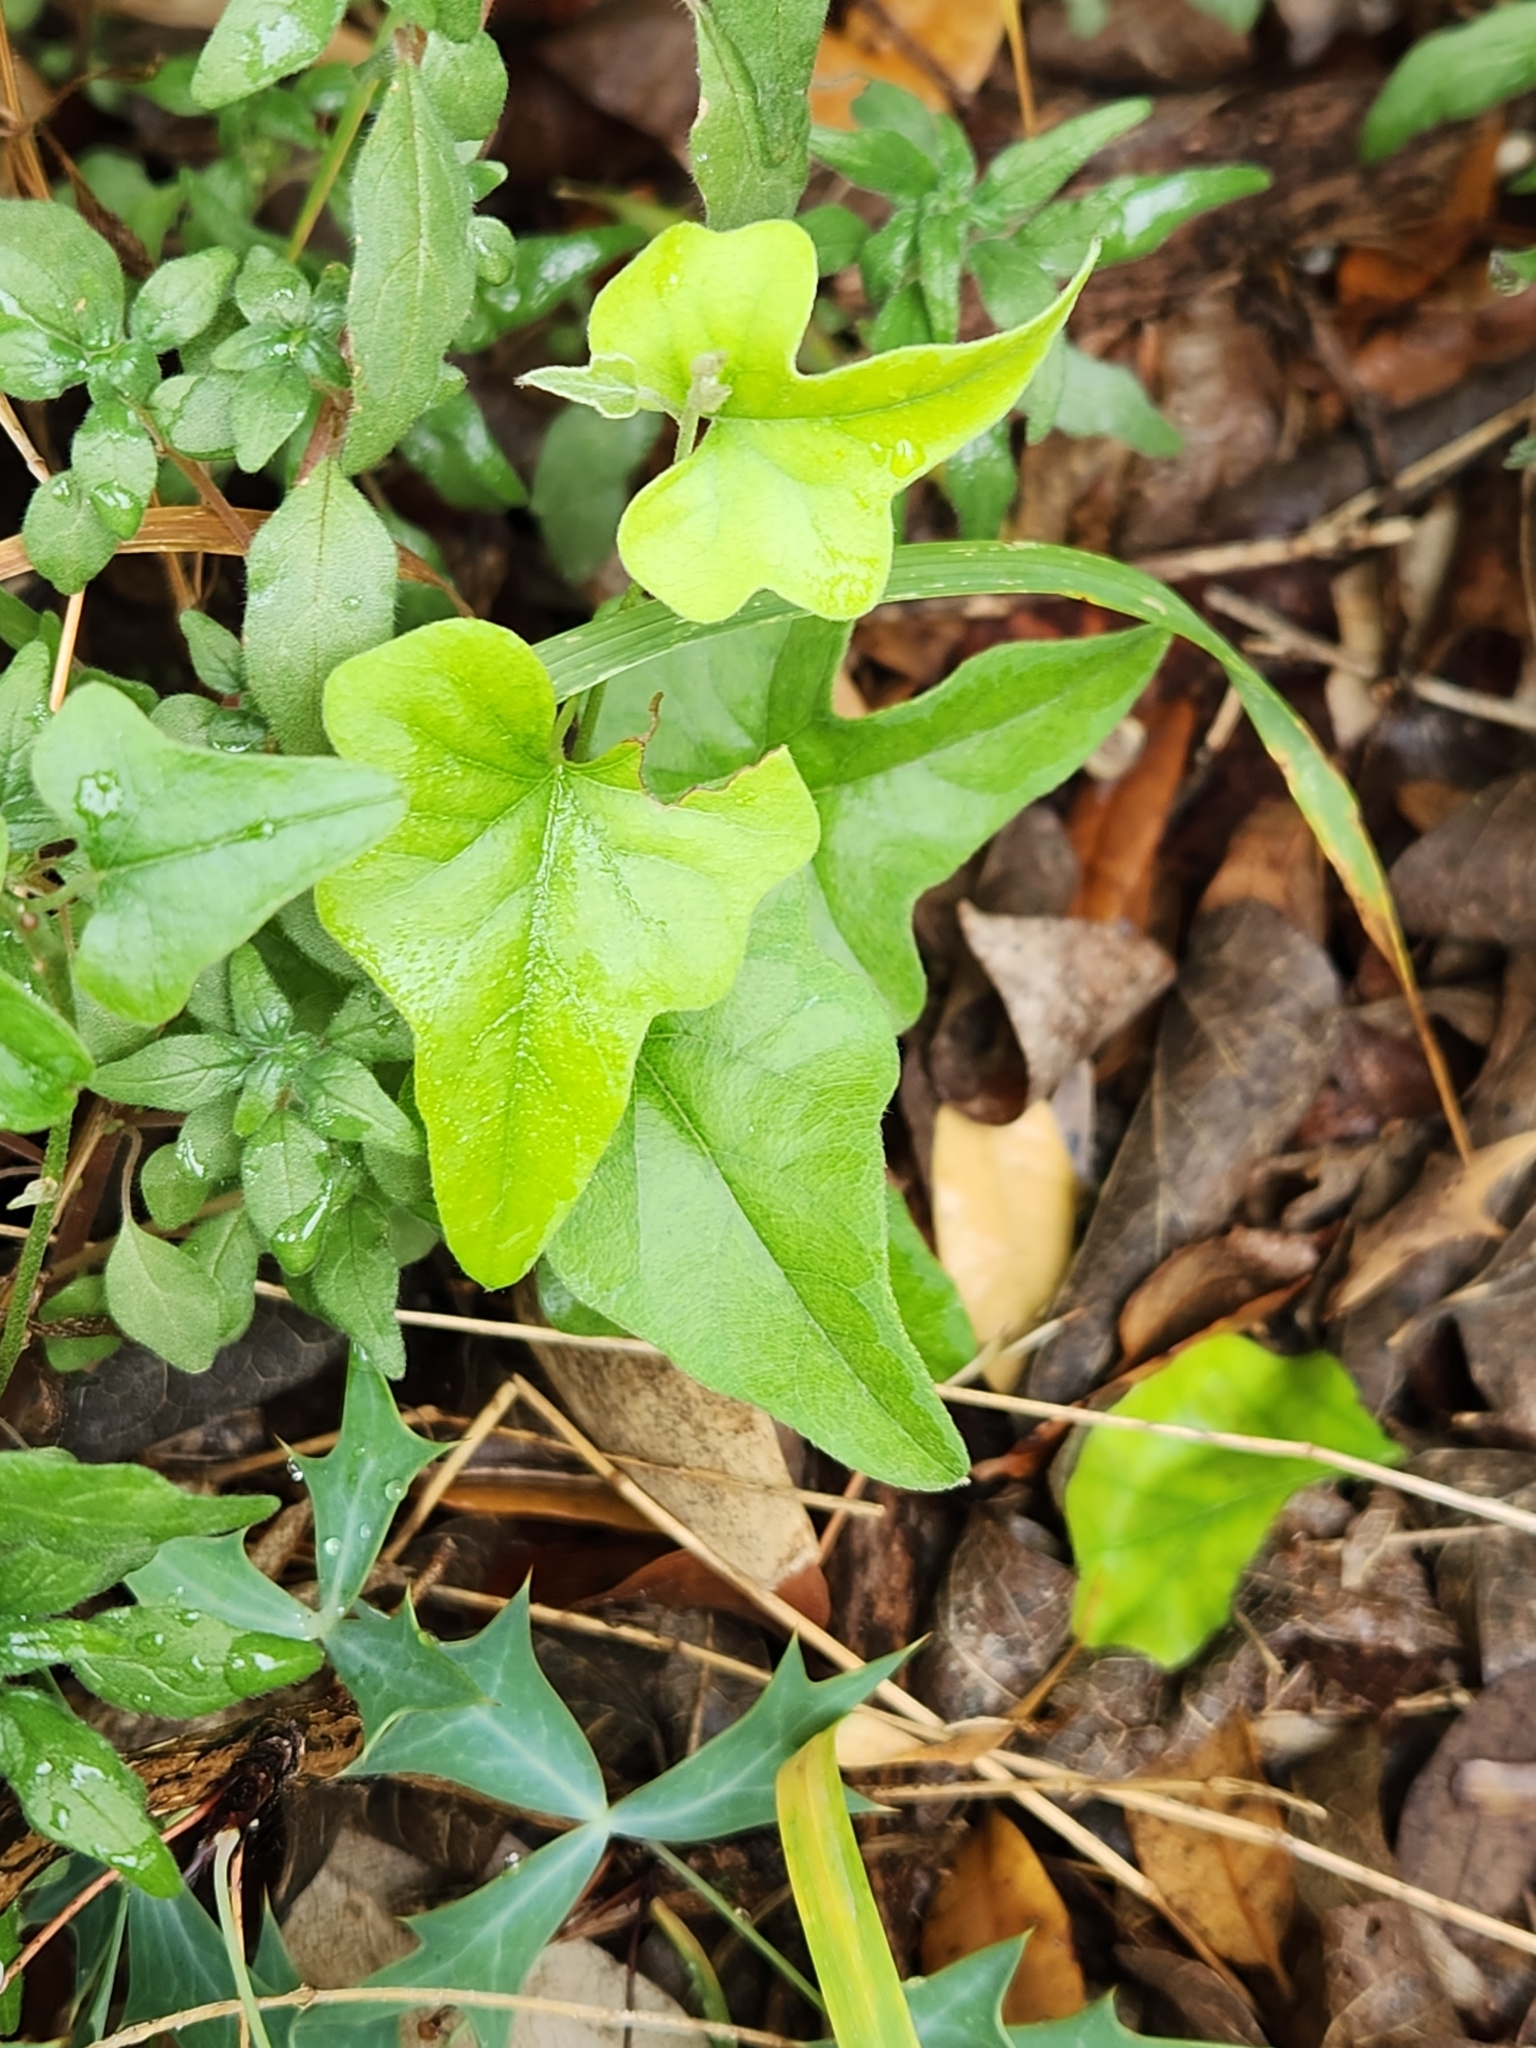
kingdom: Plantae
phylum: Tracheophyta
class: Magnoliopsida
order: Ranunculales
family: Menispermaceae
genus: Cocculus
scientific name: Cocculus carolinus
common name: Carolina moonseed
